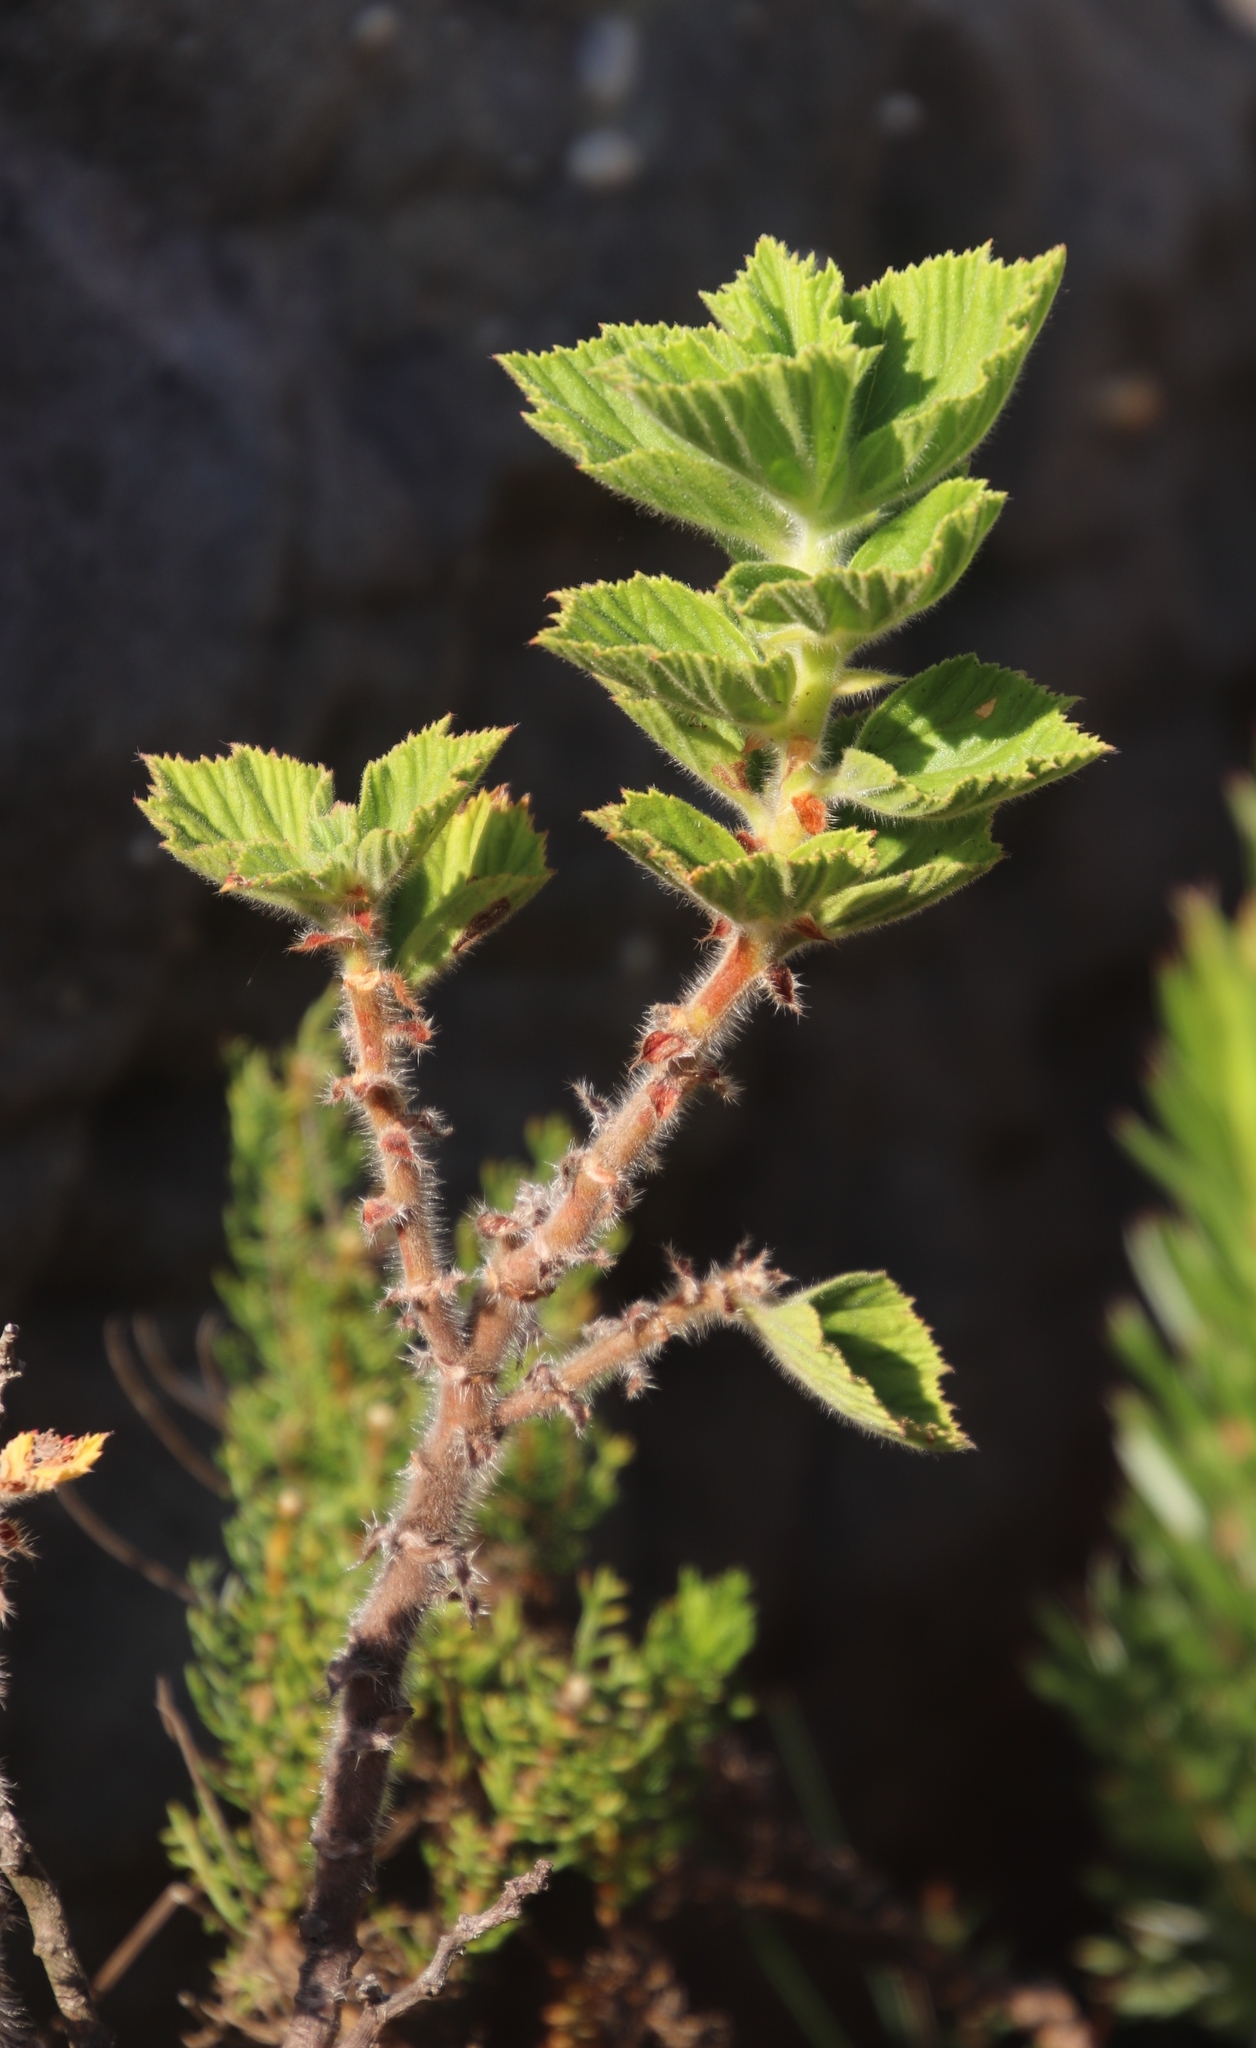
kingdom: Plantae
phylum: Tracheophyta
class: Magnoliopsida
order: Geraniales
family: Geraniaceae
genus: Pelargonium
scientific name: Pelargonium cucullatum
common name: Tree pelargonium
